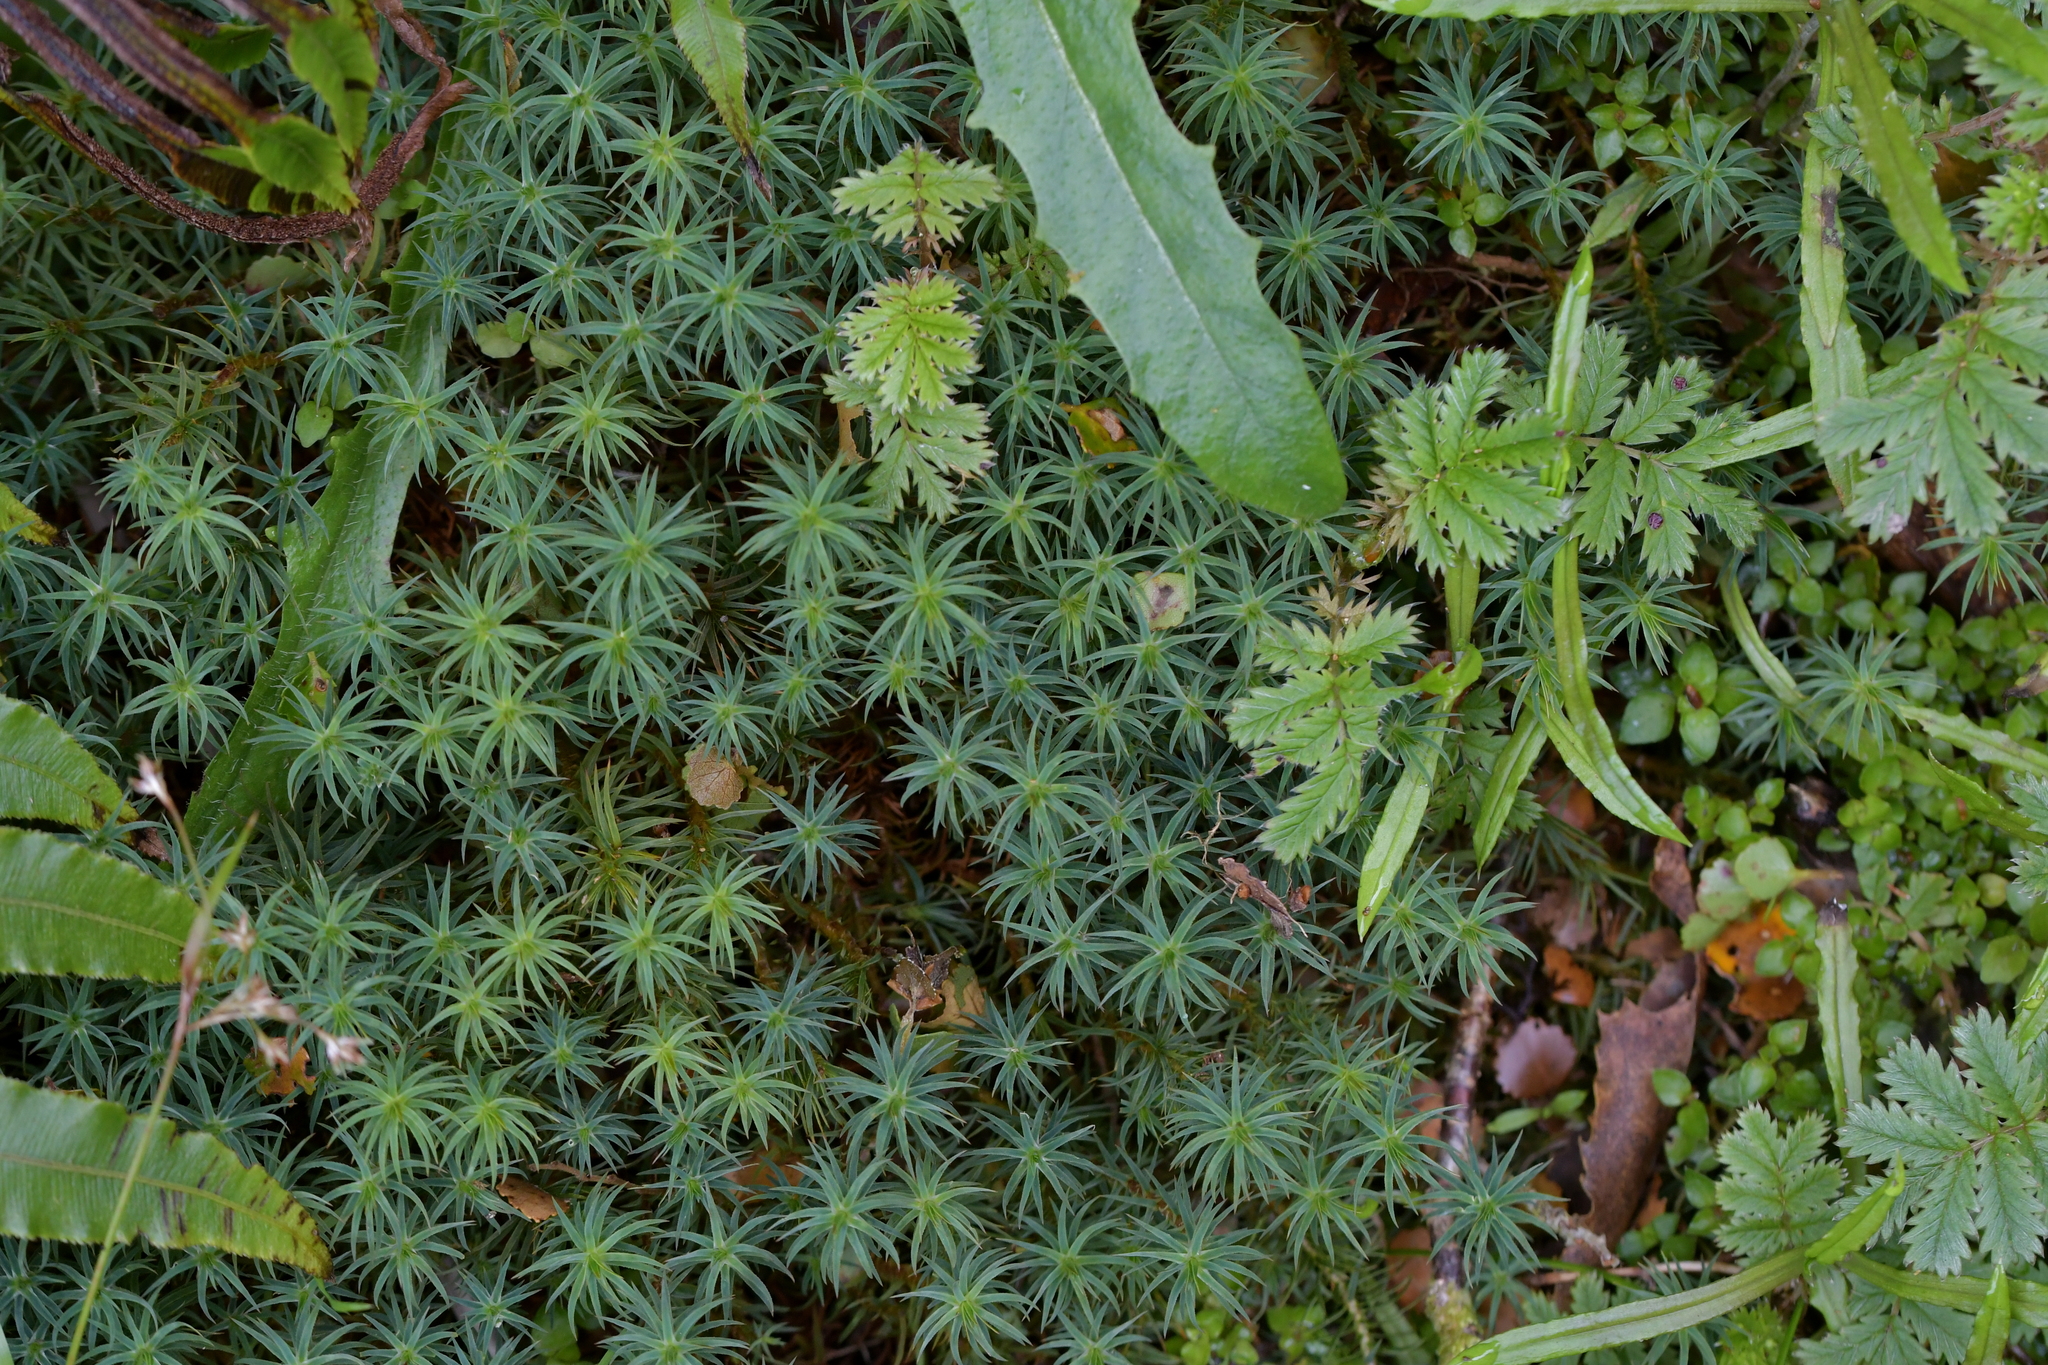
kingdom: Plantae
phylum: Bryophyta
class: Polytrichopsida
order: Polytrichales
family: Polytrichaceae
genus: Polytrichadelphus
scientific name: Polytrichadelphus magellanicus
